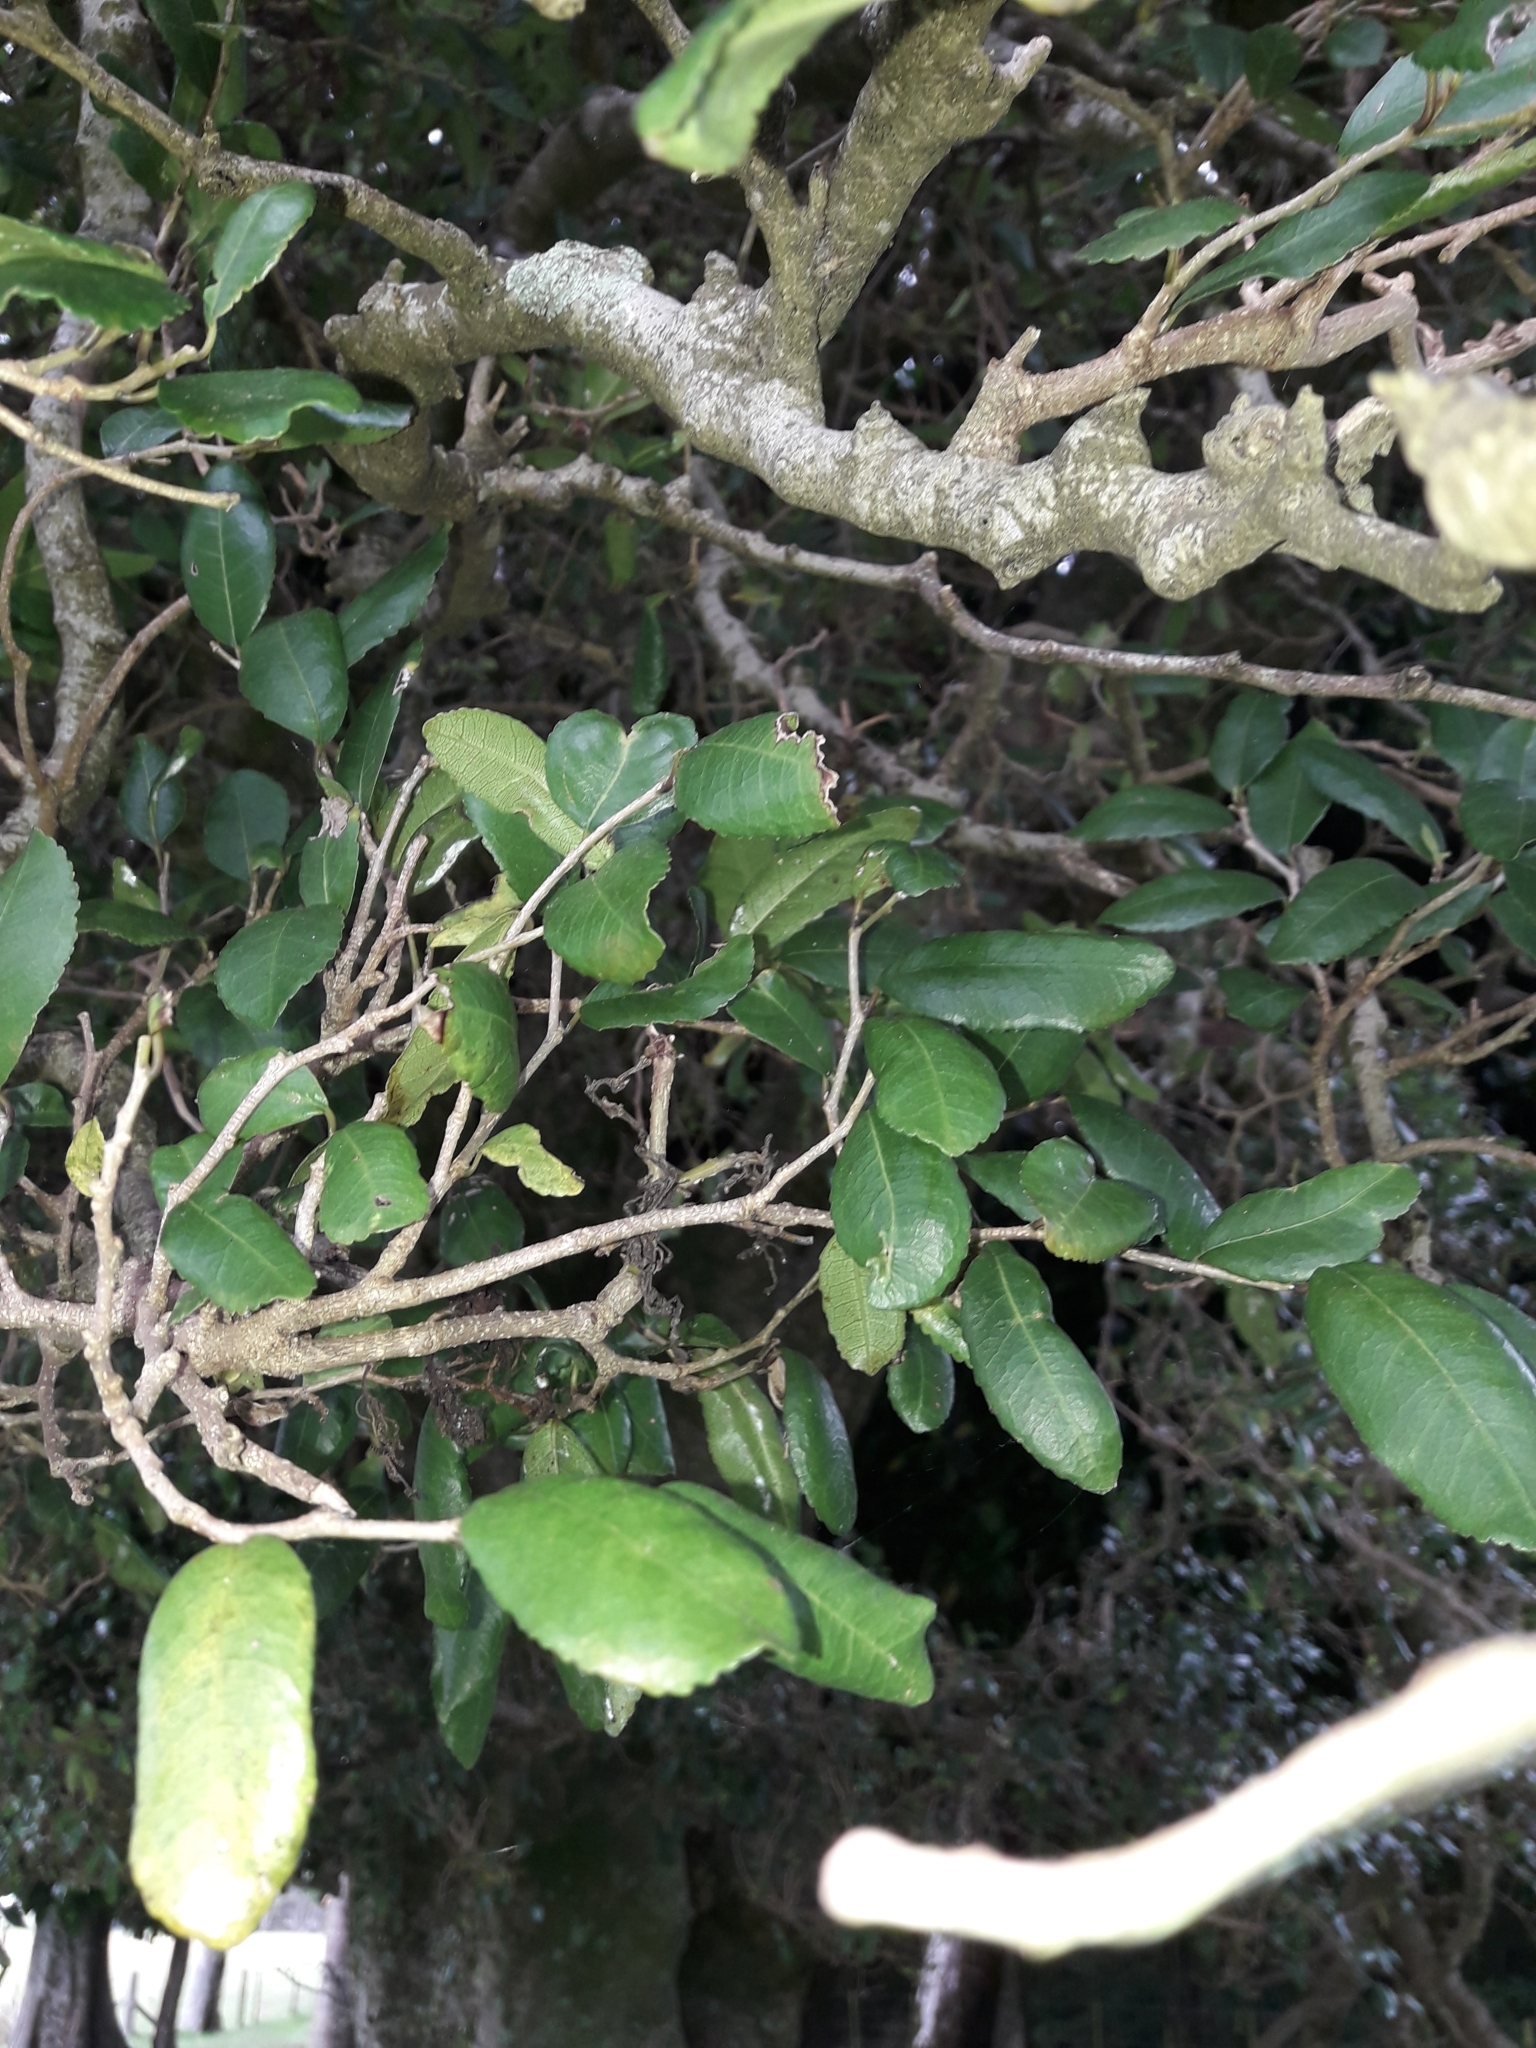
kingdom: Plantae
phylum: Tracheophyta
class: Magnoliopsida
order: Rosales
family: Moraceae
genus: Paratrophis
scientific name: Paratrophis banksii
